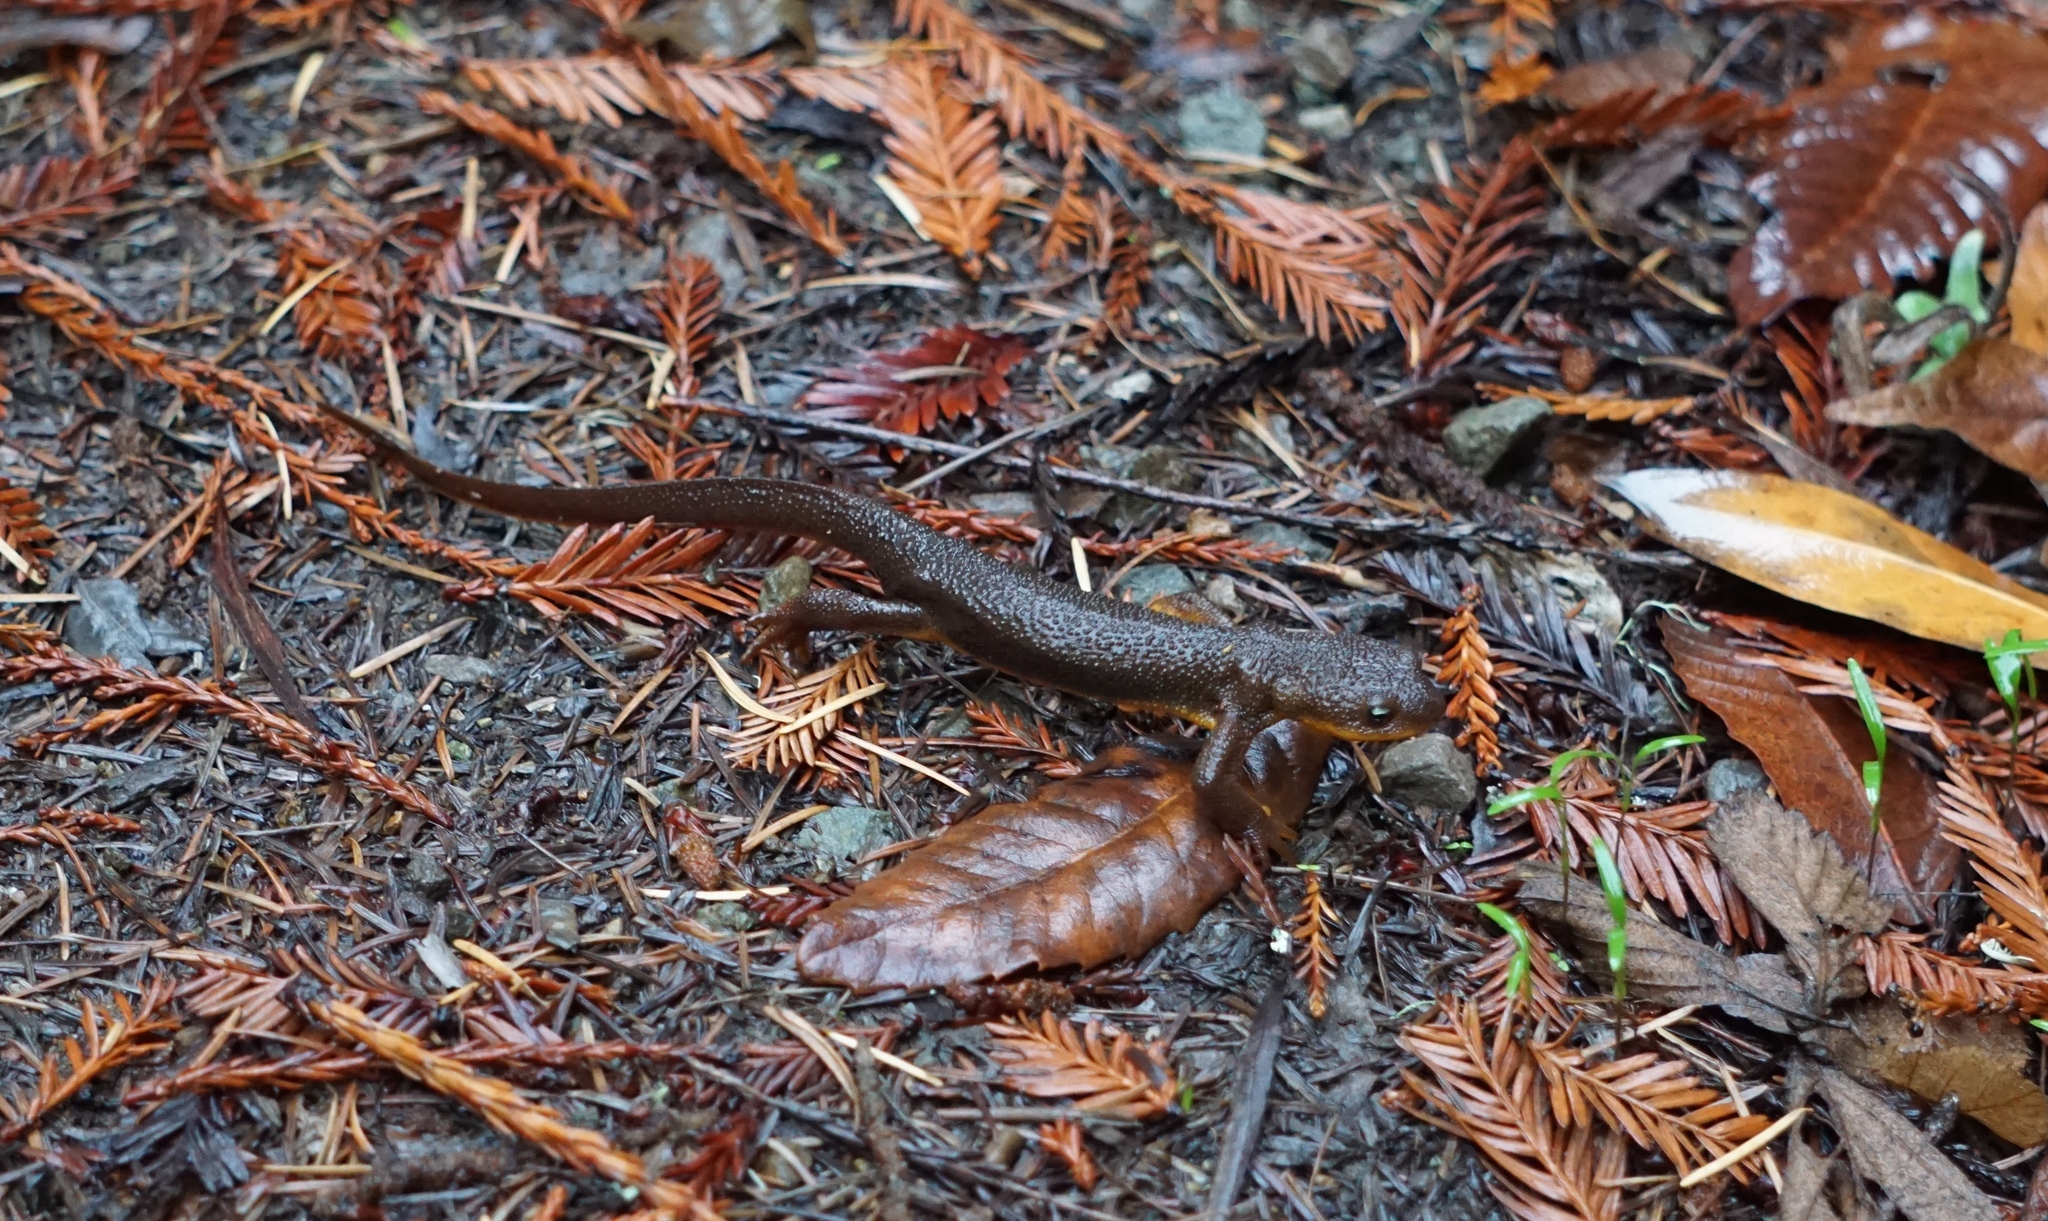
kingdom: Animalia
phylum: Chordata
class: Amphibia
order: Caudata
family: Salamandridae
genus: Taricha
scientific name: Taricha granulosa
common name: Roughskin newt
